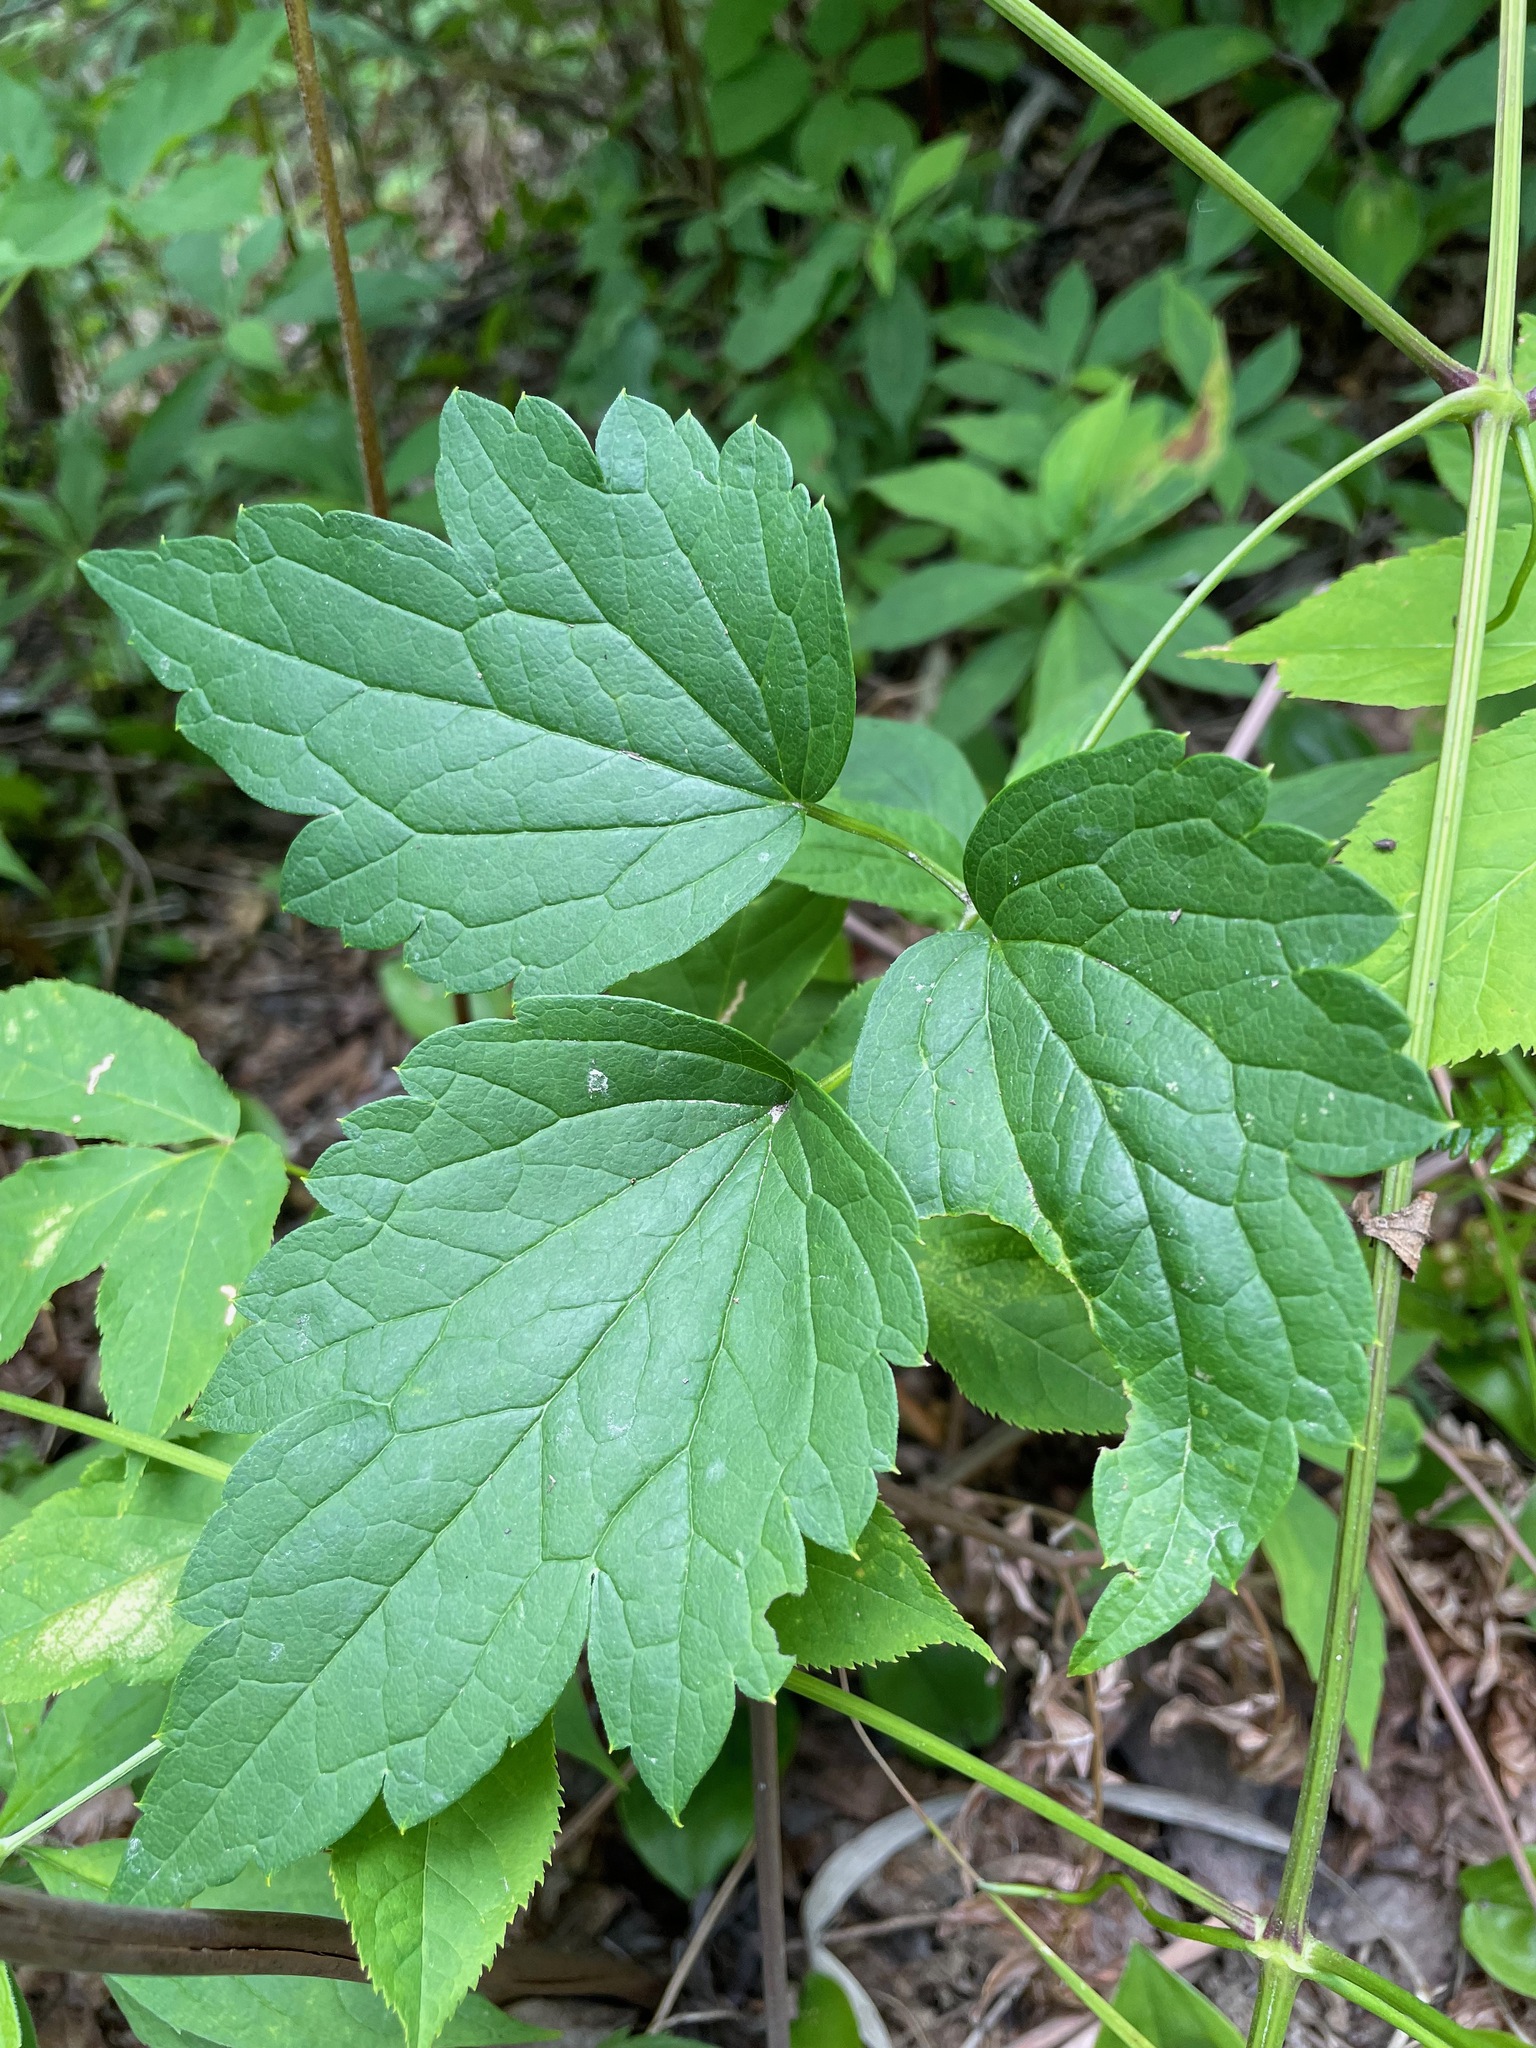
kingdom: Plantae
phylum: Tracheophyta
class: Magnoliopsida
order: Ranunculales
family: Ranunculaceae
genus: Clematis
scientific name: Clematis virginiana
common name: Virgin's-bower
